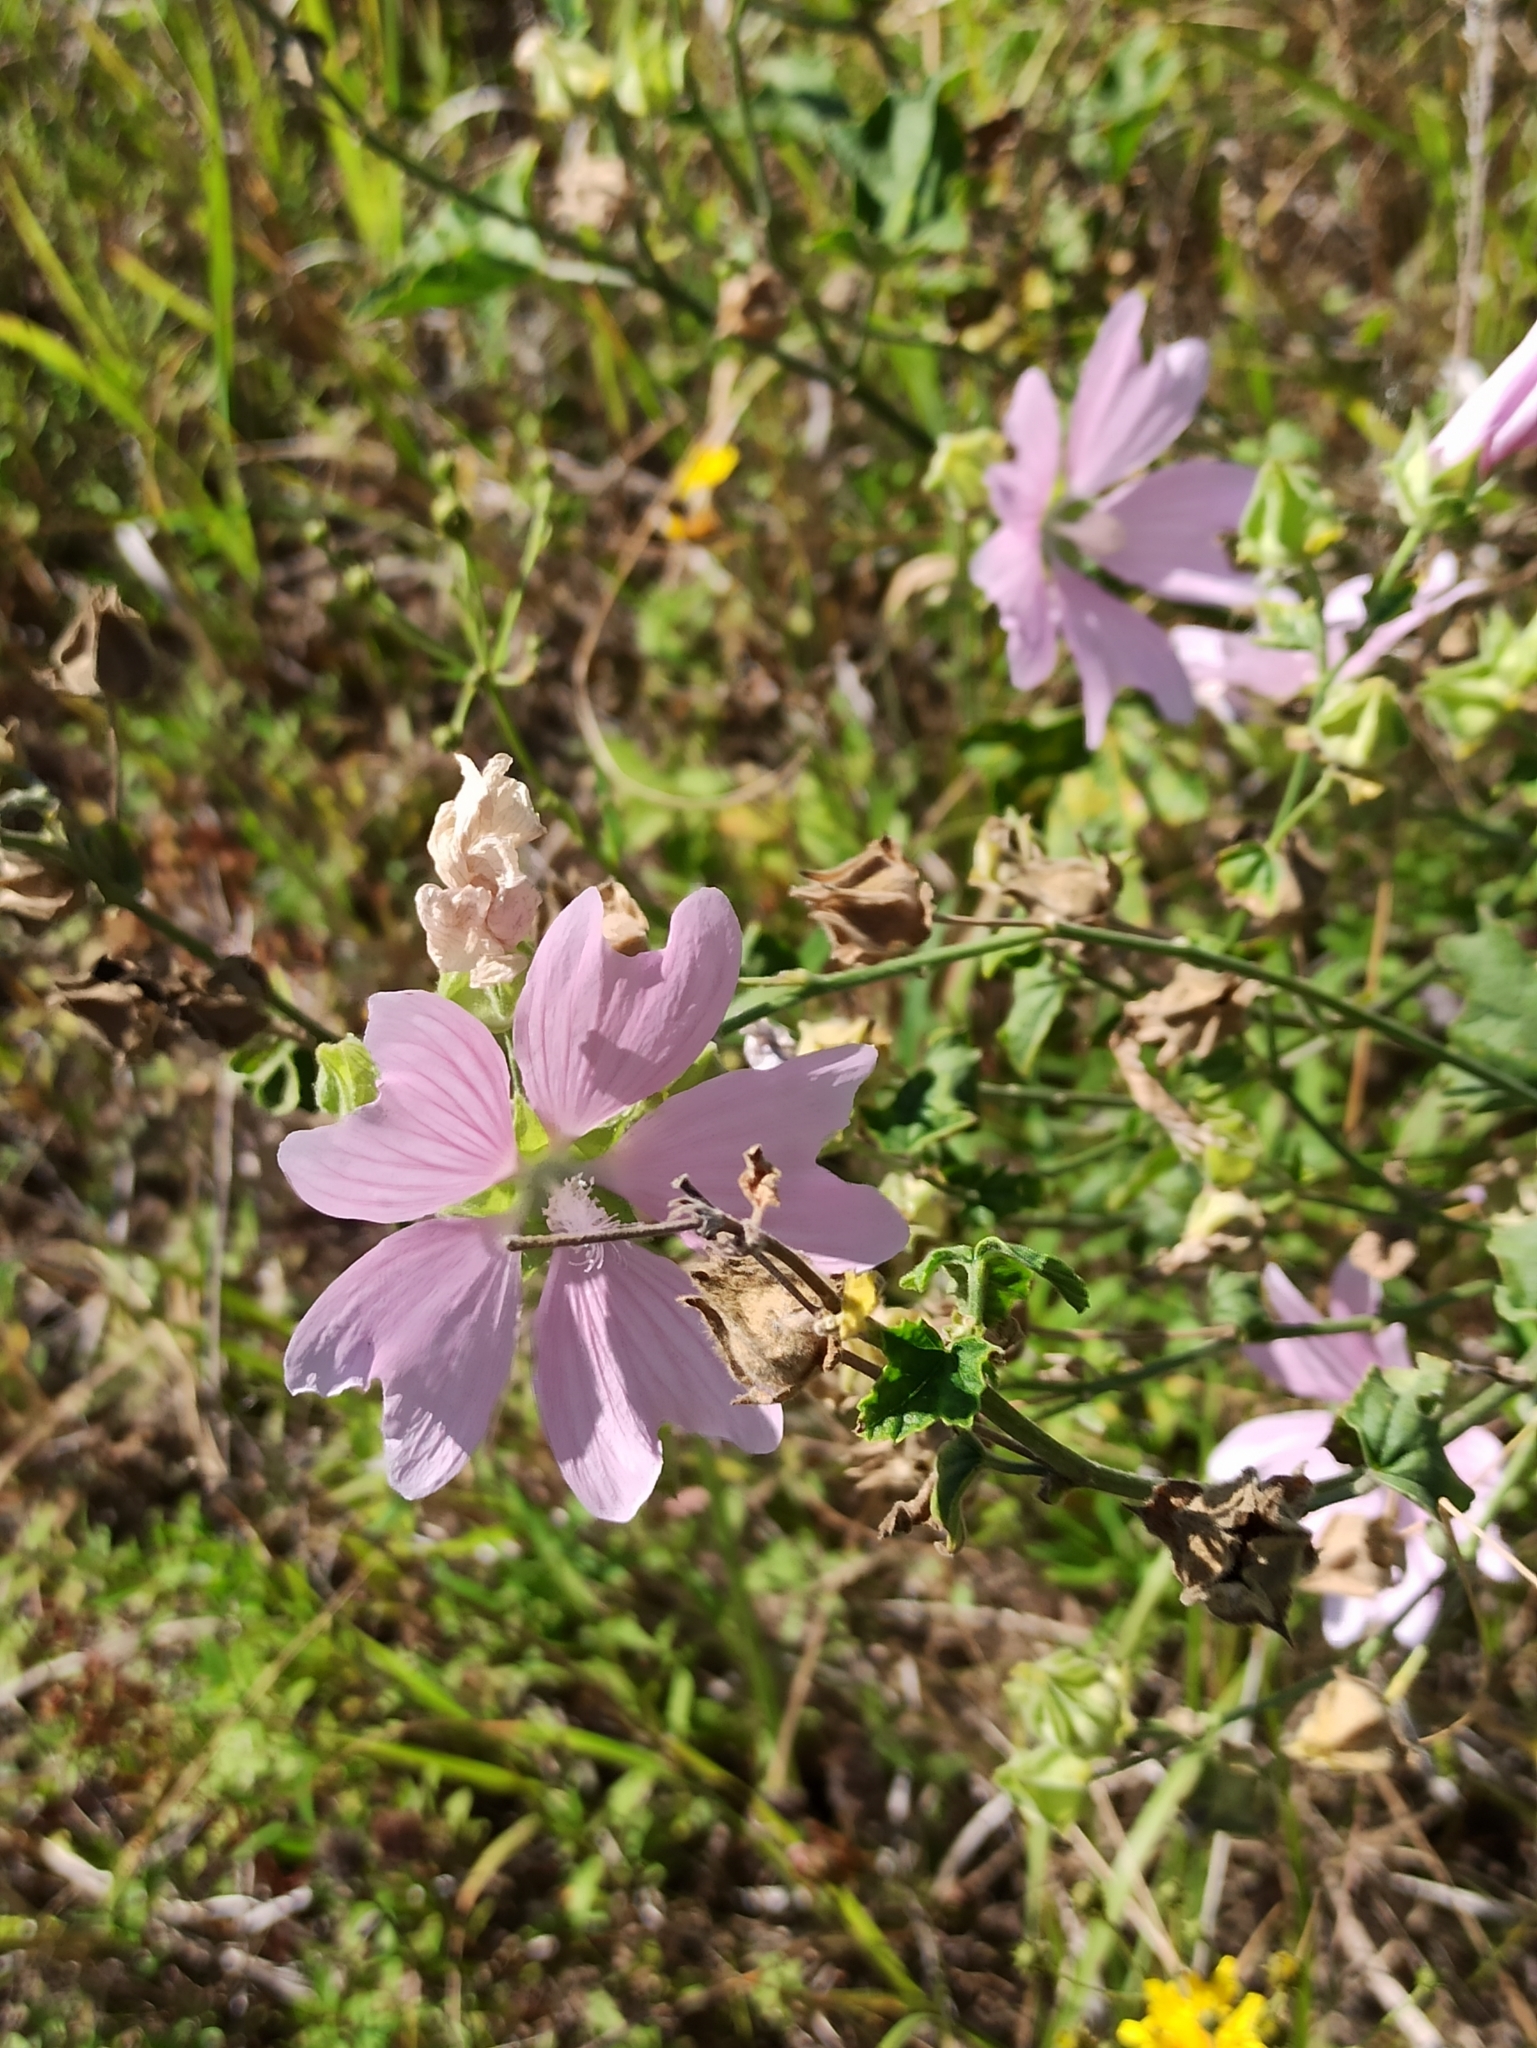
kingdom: Plantae
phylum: Tracheophyta
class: Magnoliopsida
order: Malvales
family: Malvaceae
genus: Malva
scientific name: Malva thuringiaca
